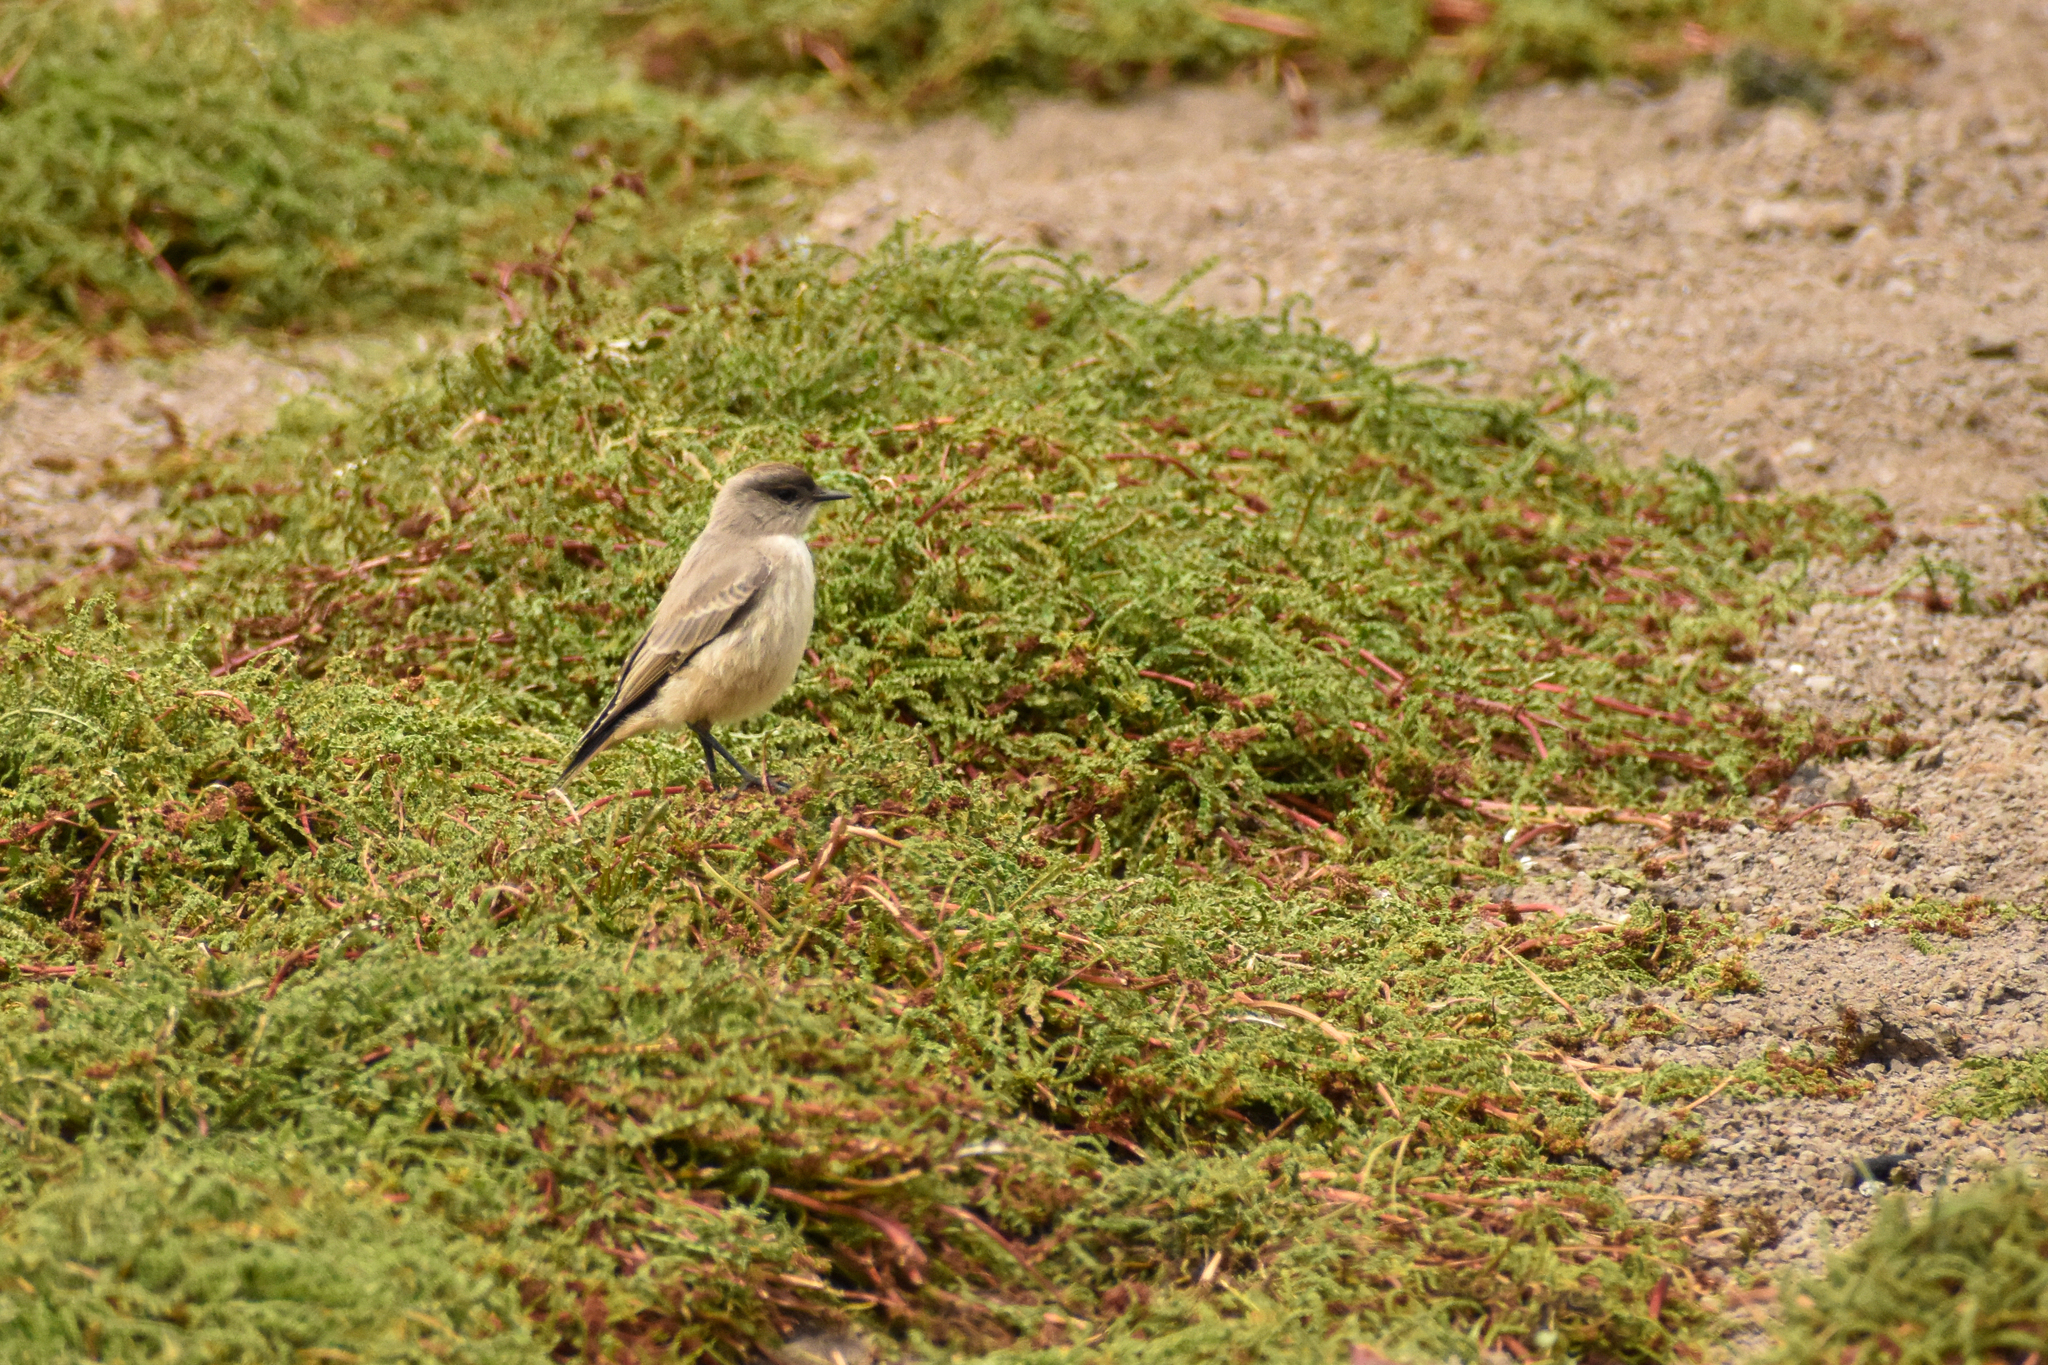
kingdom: Animalia
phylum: Chordata
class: Aves
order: Passeriformes
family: Tyrannidae
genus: Muscisaxicola
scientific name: Muscisaxicola capistratus
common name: Cinnamon-bellied ground tyrant
